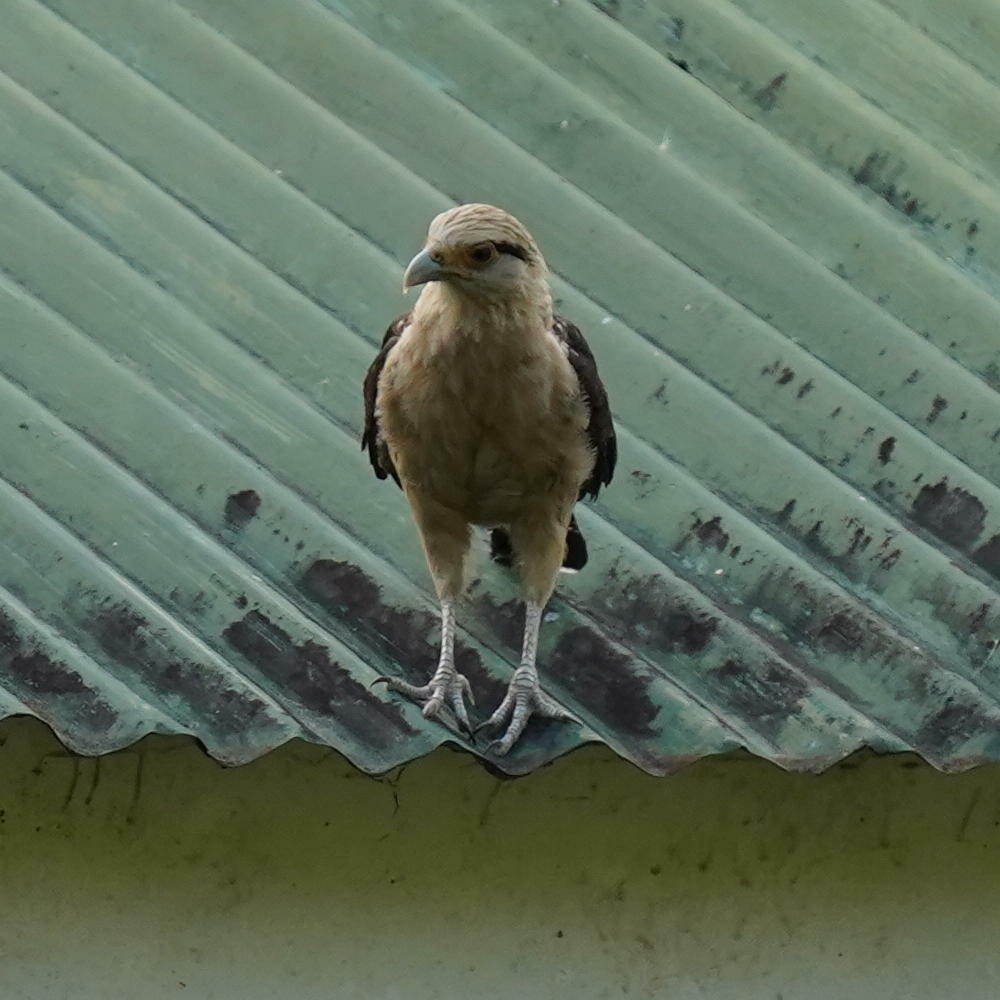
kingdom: Animalia
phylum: Chordata
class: Aves
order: Falconiformes
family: Falconidae
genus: Daptrius
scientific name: Daptrius
